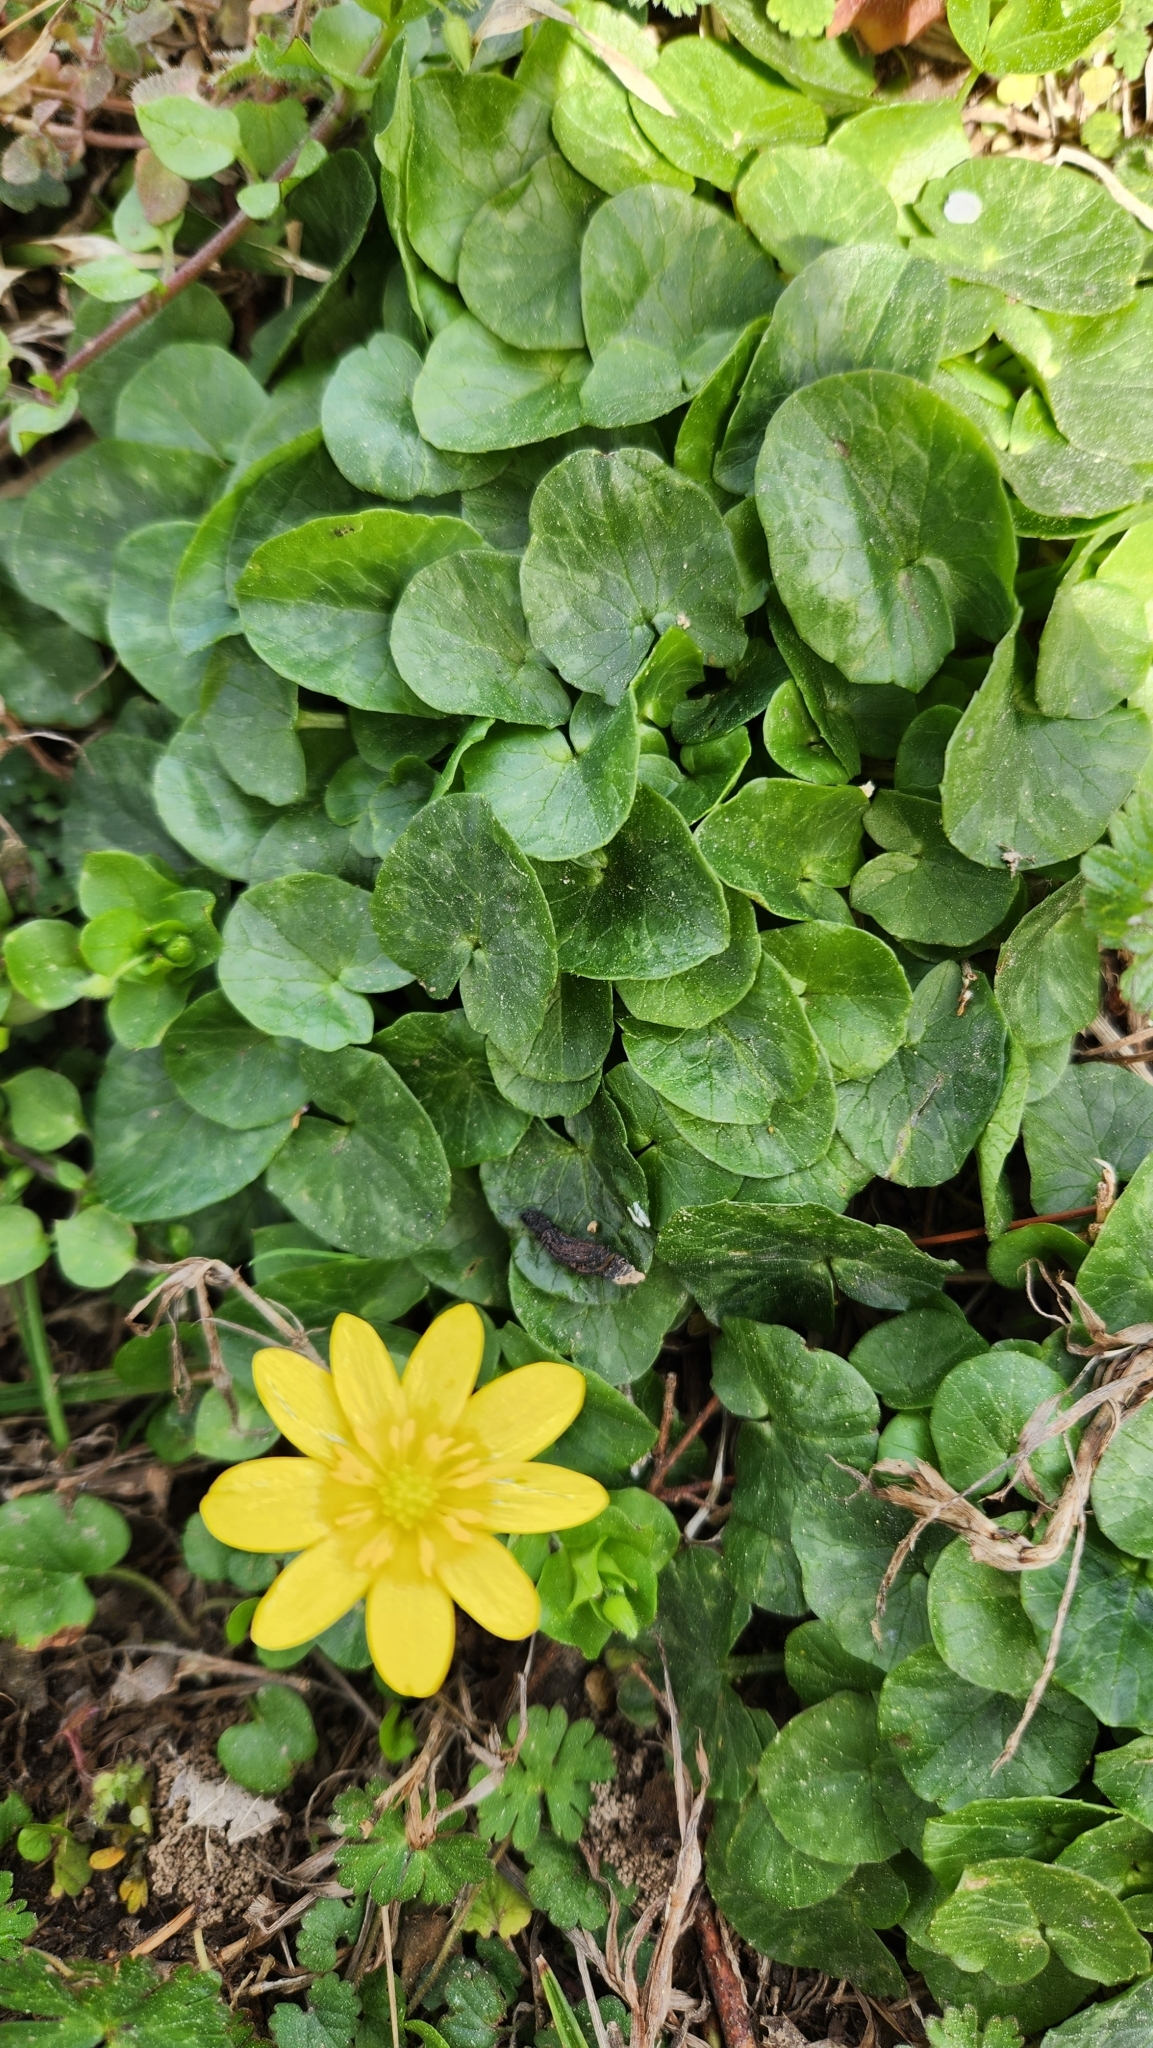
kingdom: Plantae
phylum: Tracheophyta
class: Magnoliopsida
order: Ranunculales
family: Ranunculaceae
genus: Ficaria
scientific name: Ficaria verna
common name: Lesser celandine
